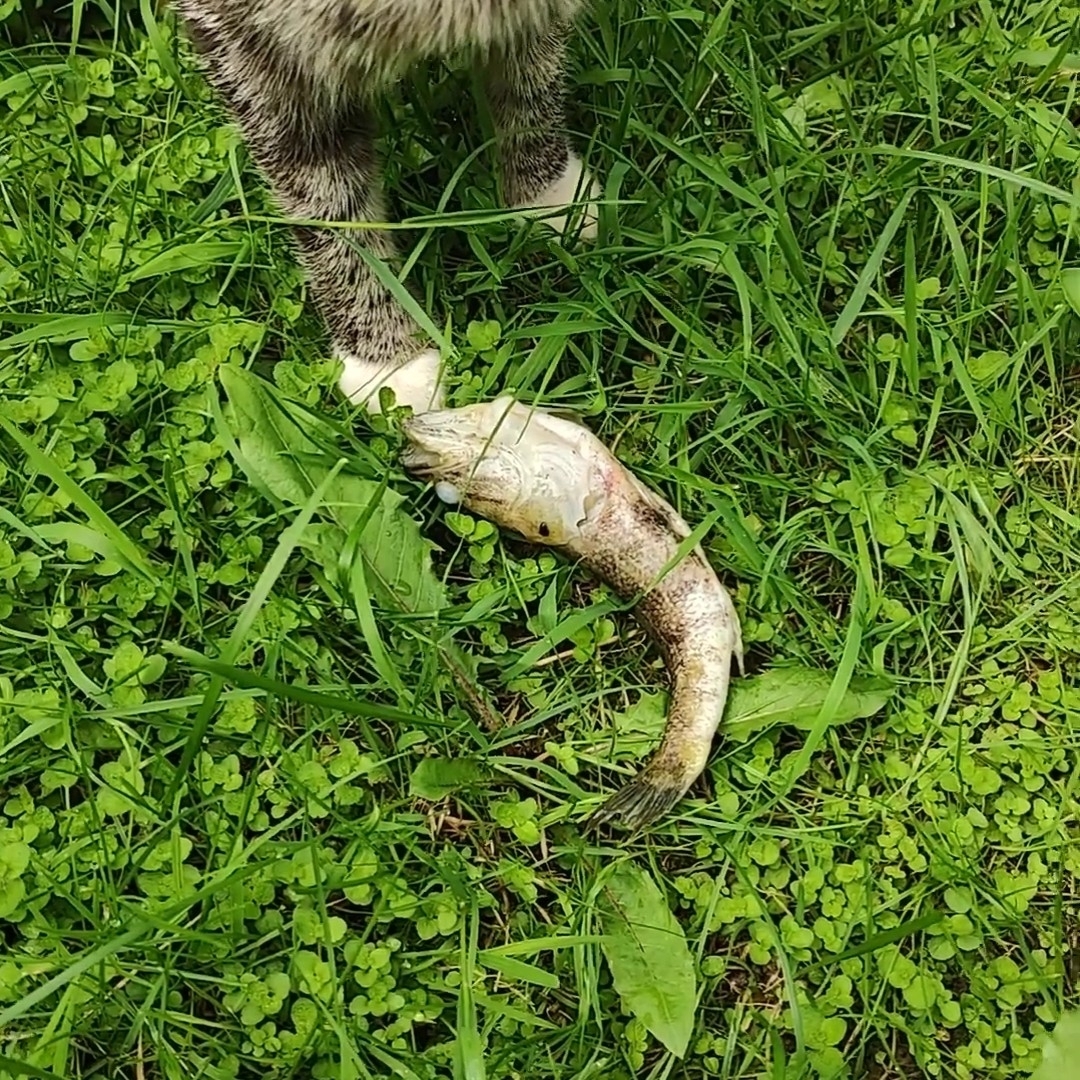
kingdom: Animalia
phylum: Chordata
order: Perciformes
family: Odontobutidae
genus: Perccottus
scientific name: Perccottus glenii
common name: Amur sleeper
